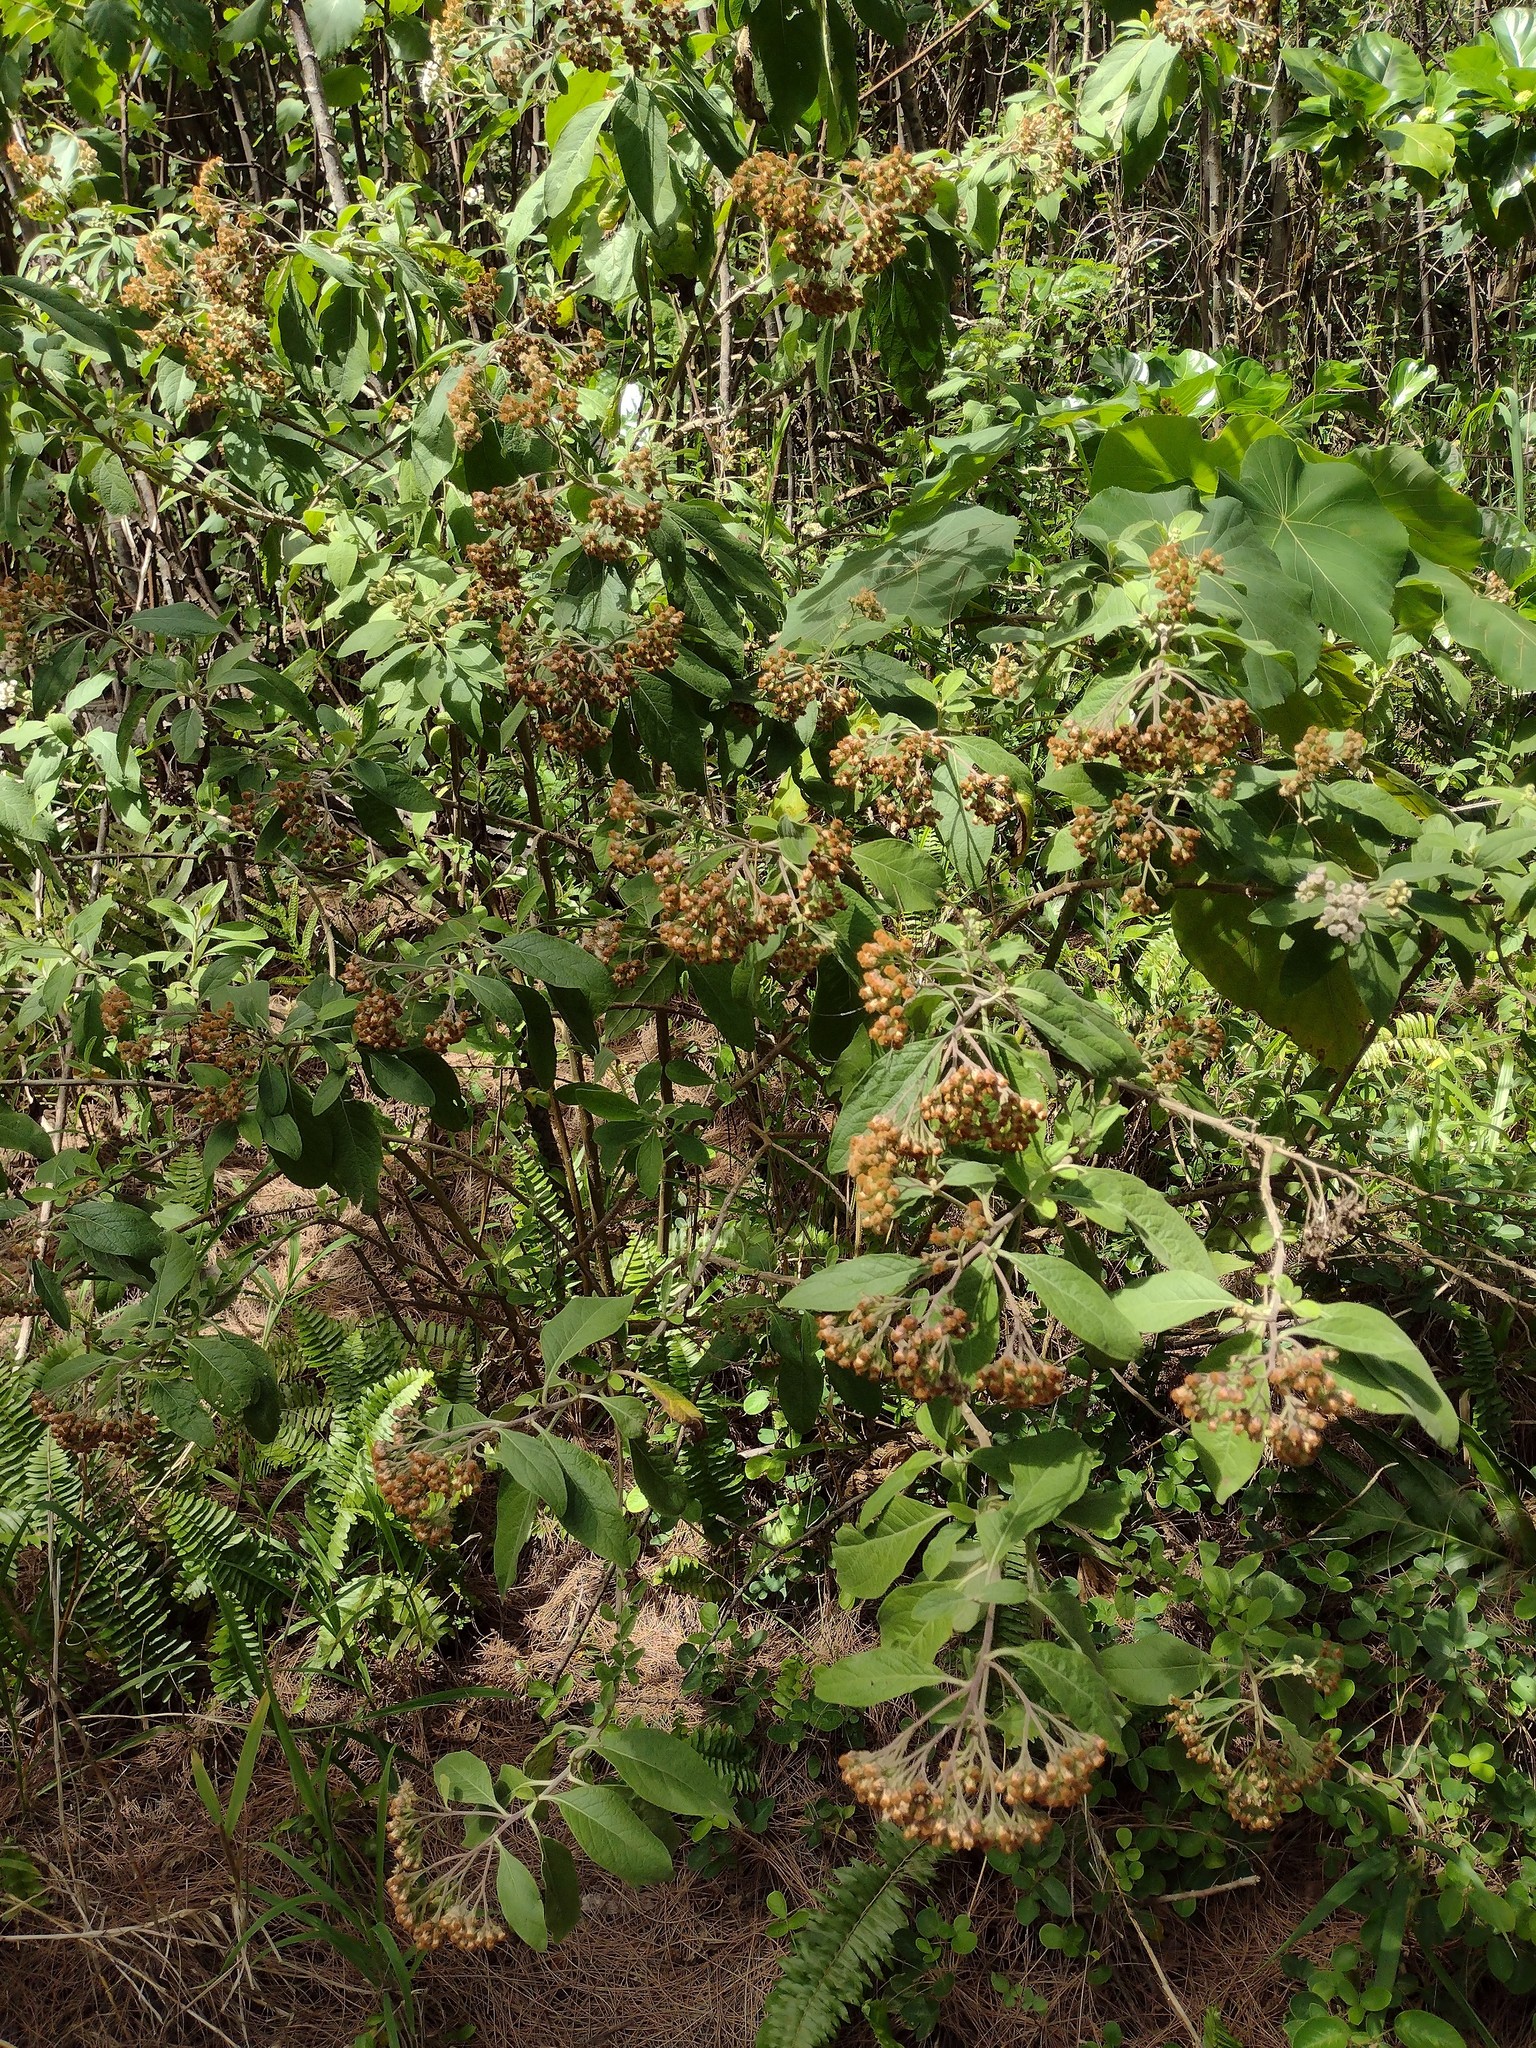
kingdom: Plantae
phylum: Tracheophyta
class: Magnoliopsida
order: Asterales
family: Asteraceae
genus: Pluchea
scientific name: Pluchea carolinensis
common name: Marsh fleabane
